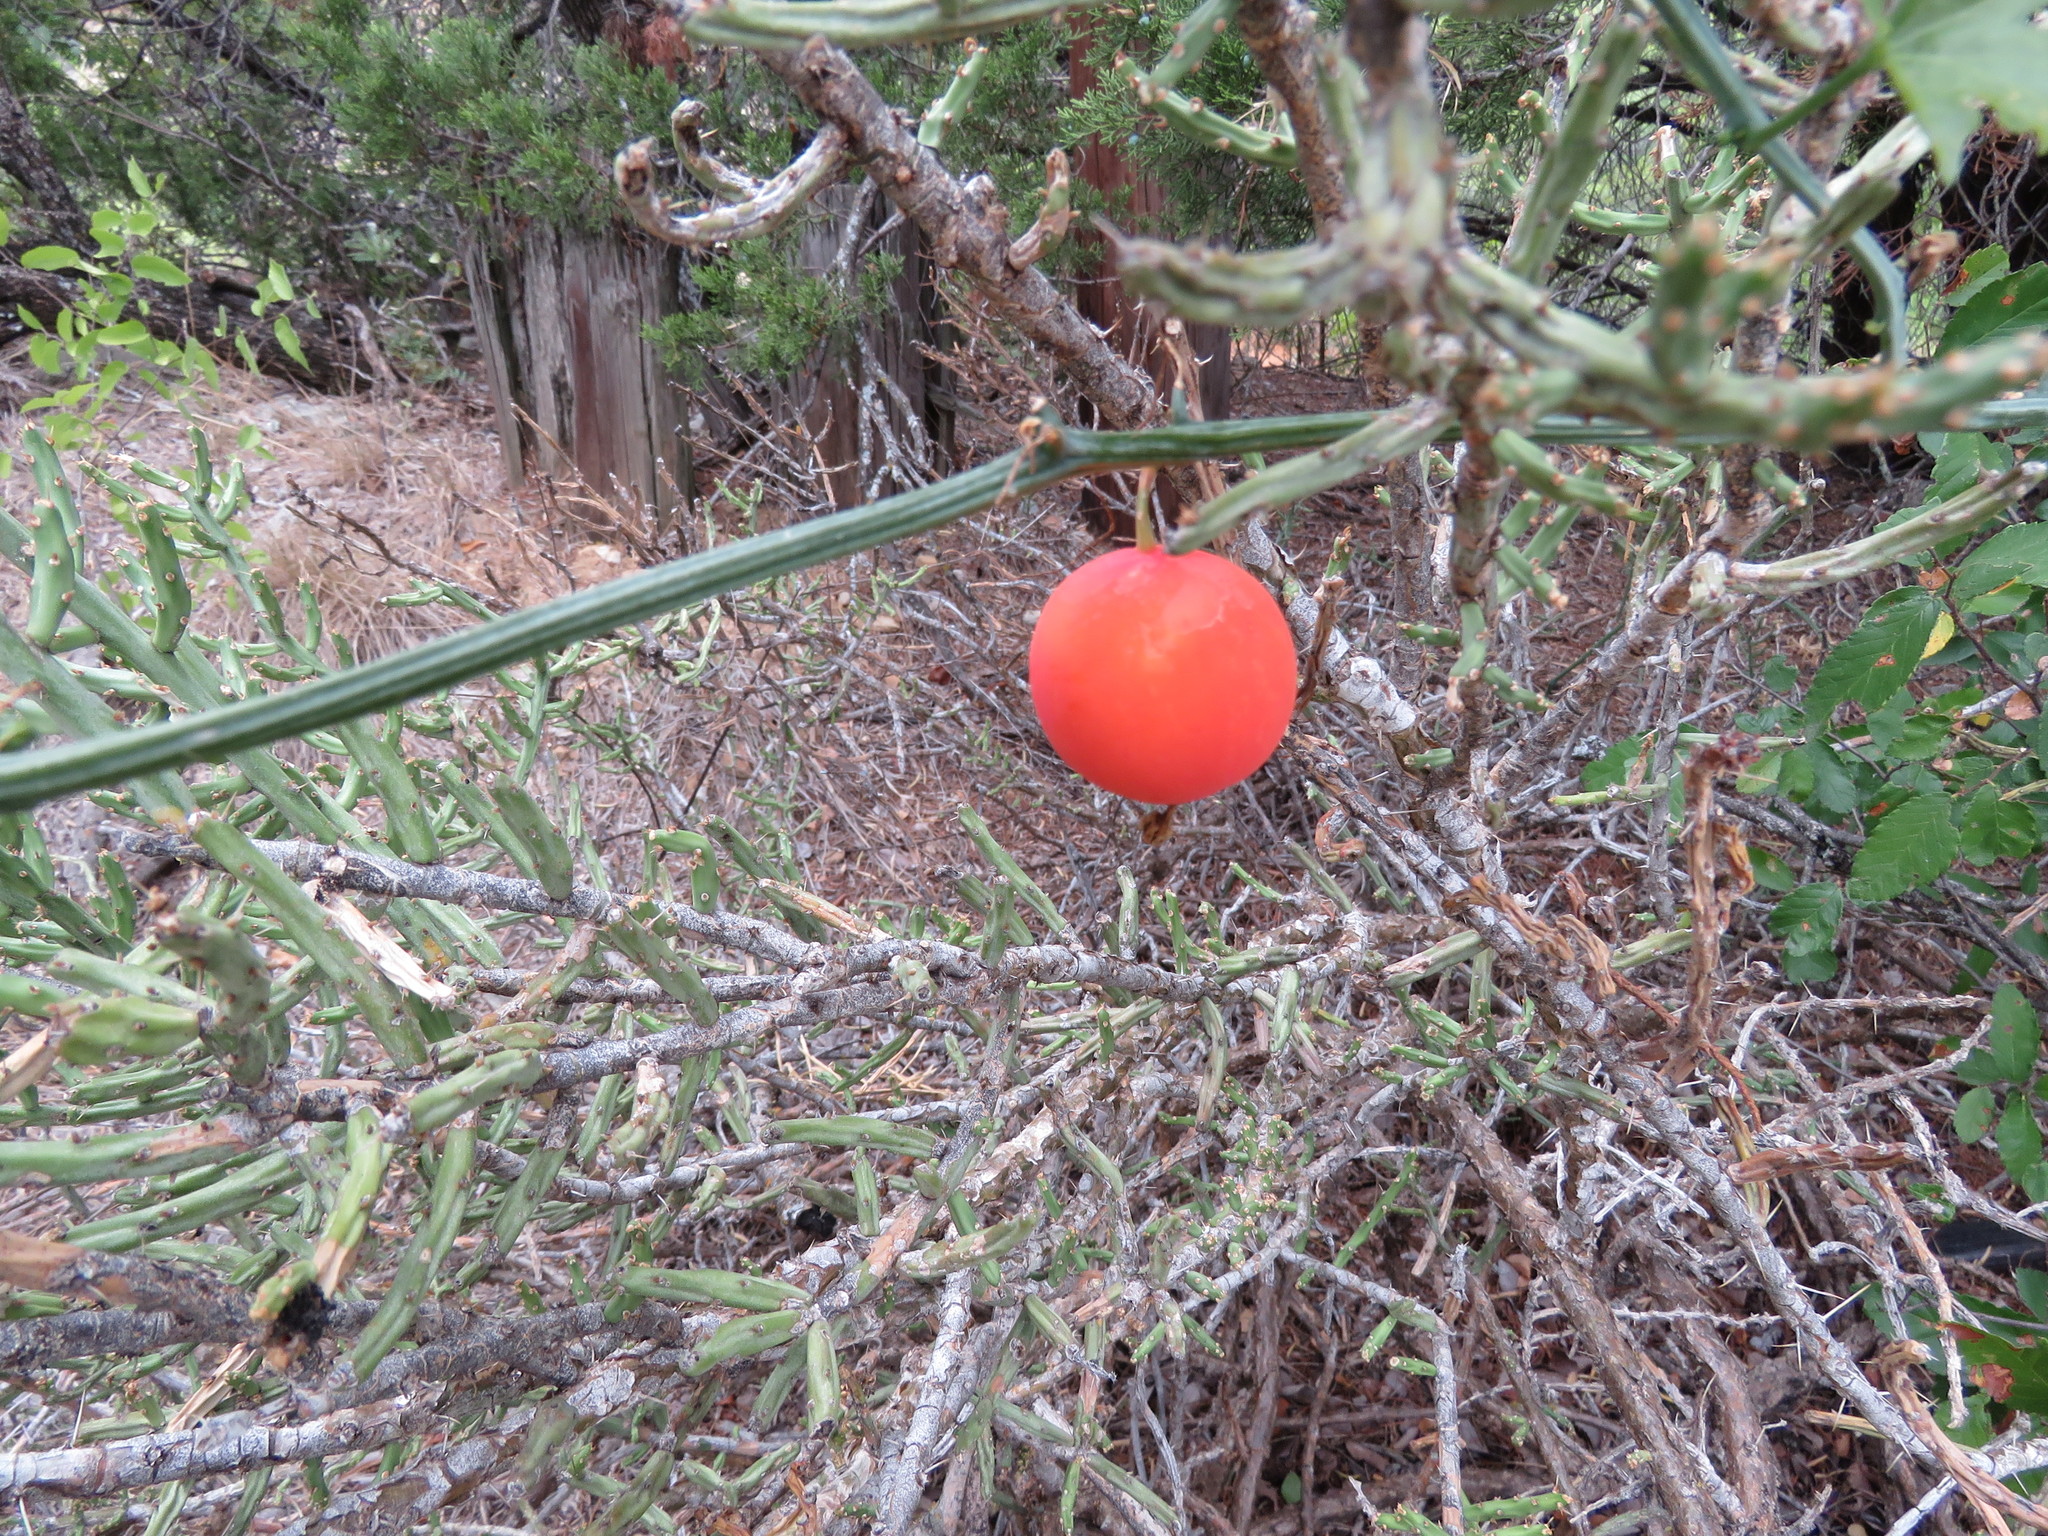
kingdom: Plantae
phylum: Tracheophyta
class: Magnoliopsida
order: Cucurbitales
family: Cucurbitaceae
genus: Ibervillea
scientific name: Ibervillea lindheimeri
